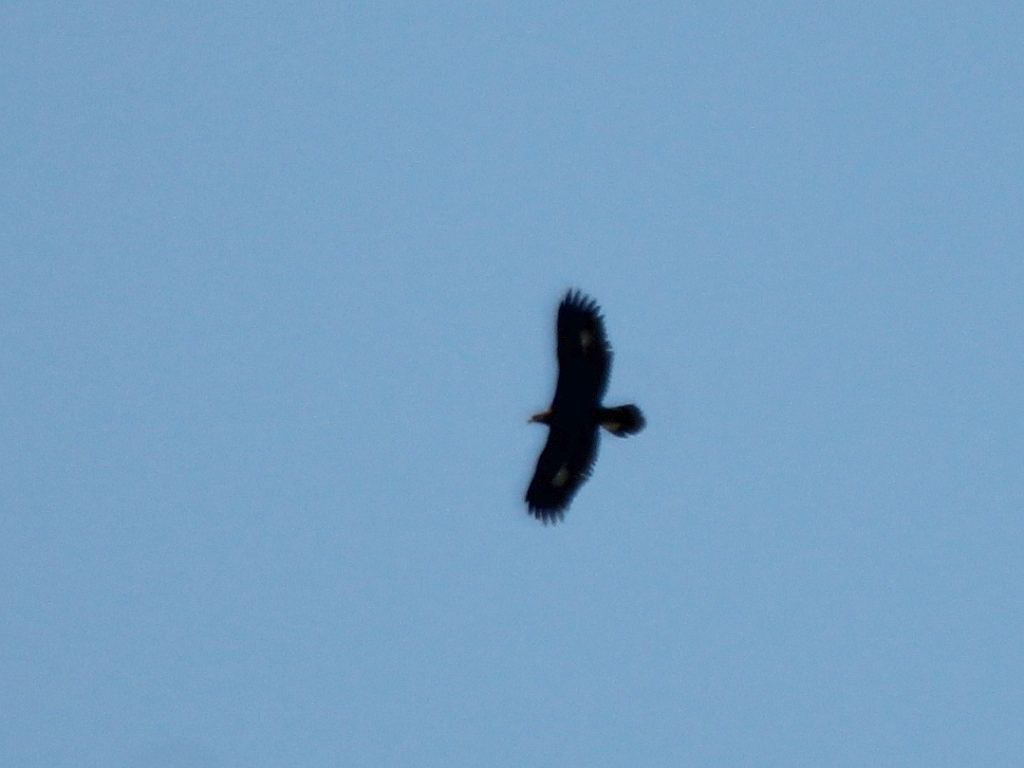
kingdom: Animalia
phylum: Chordata
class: Aves
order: Accipitriformes
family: Accipitridae
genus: Aquila
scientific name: Aquila chrysaetos
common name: Golden eagle
